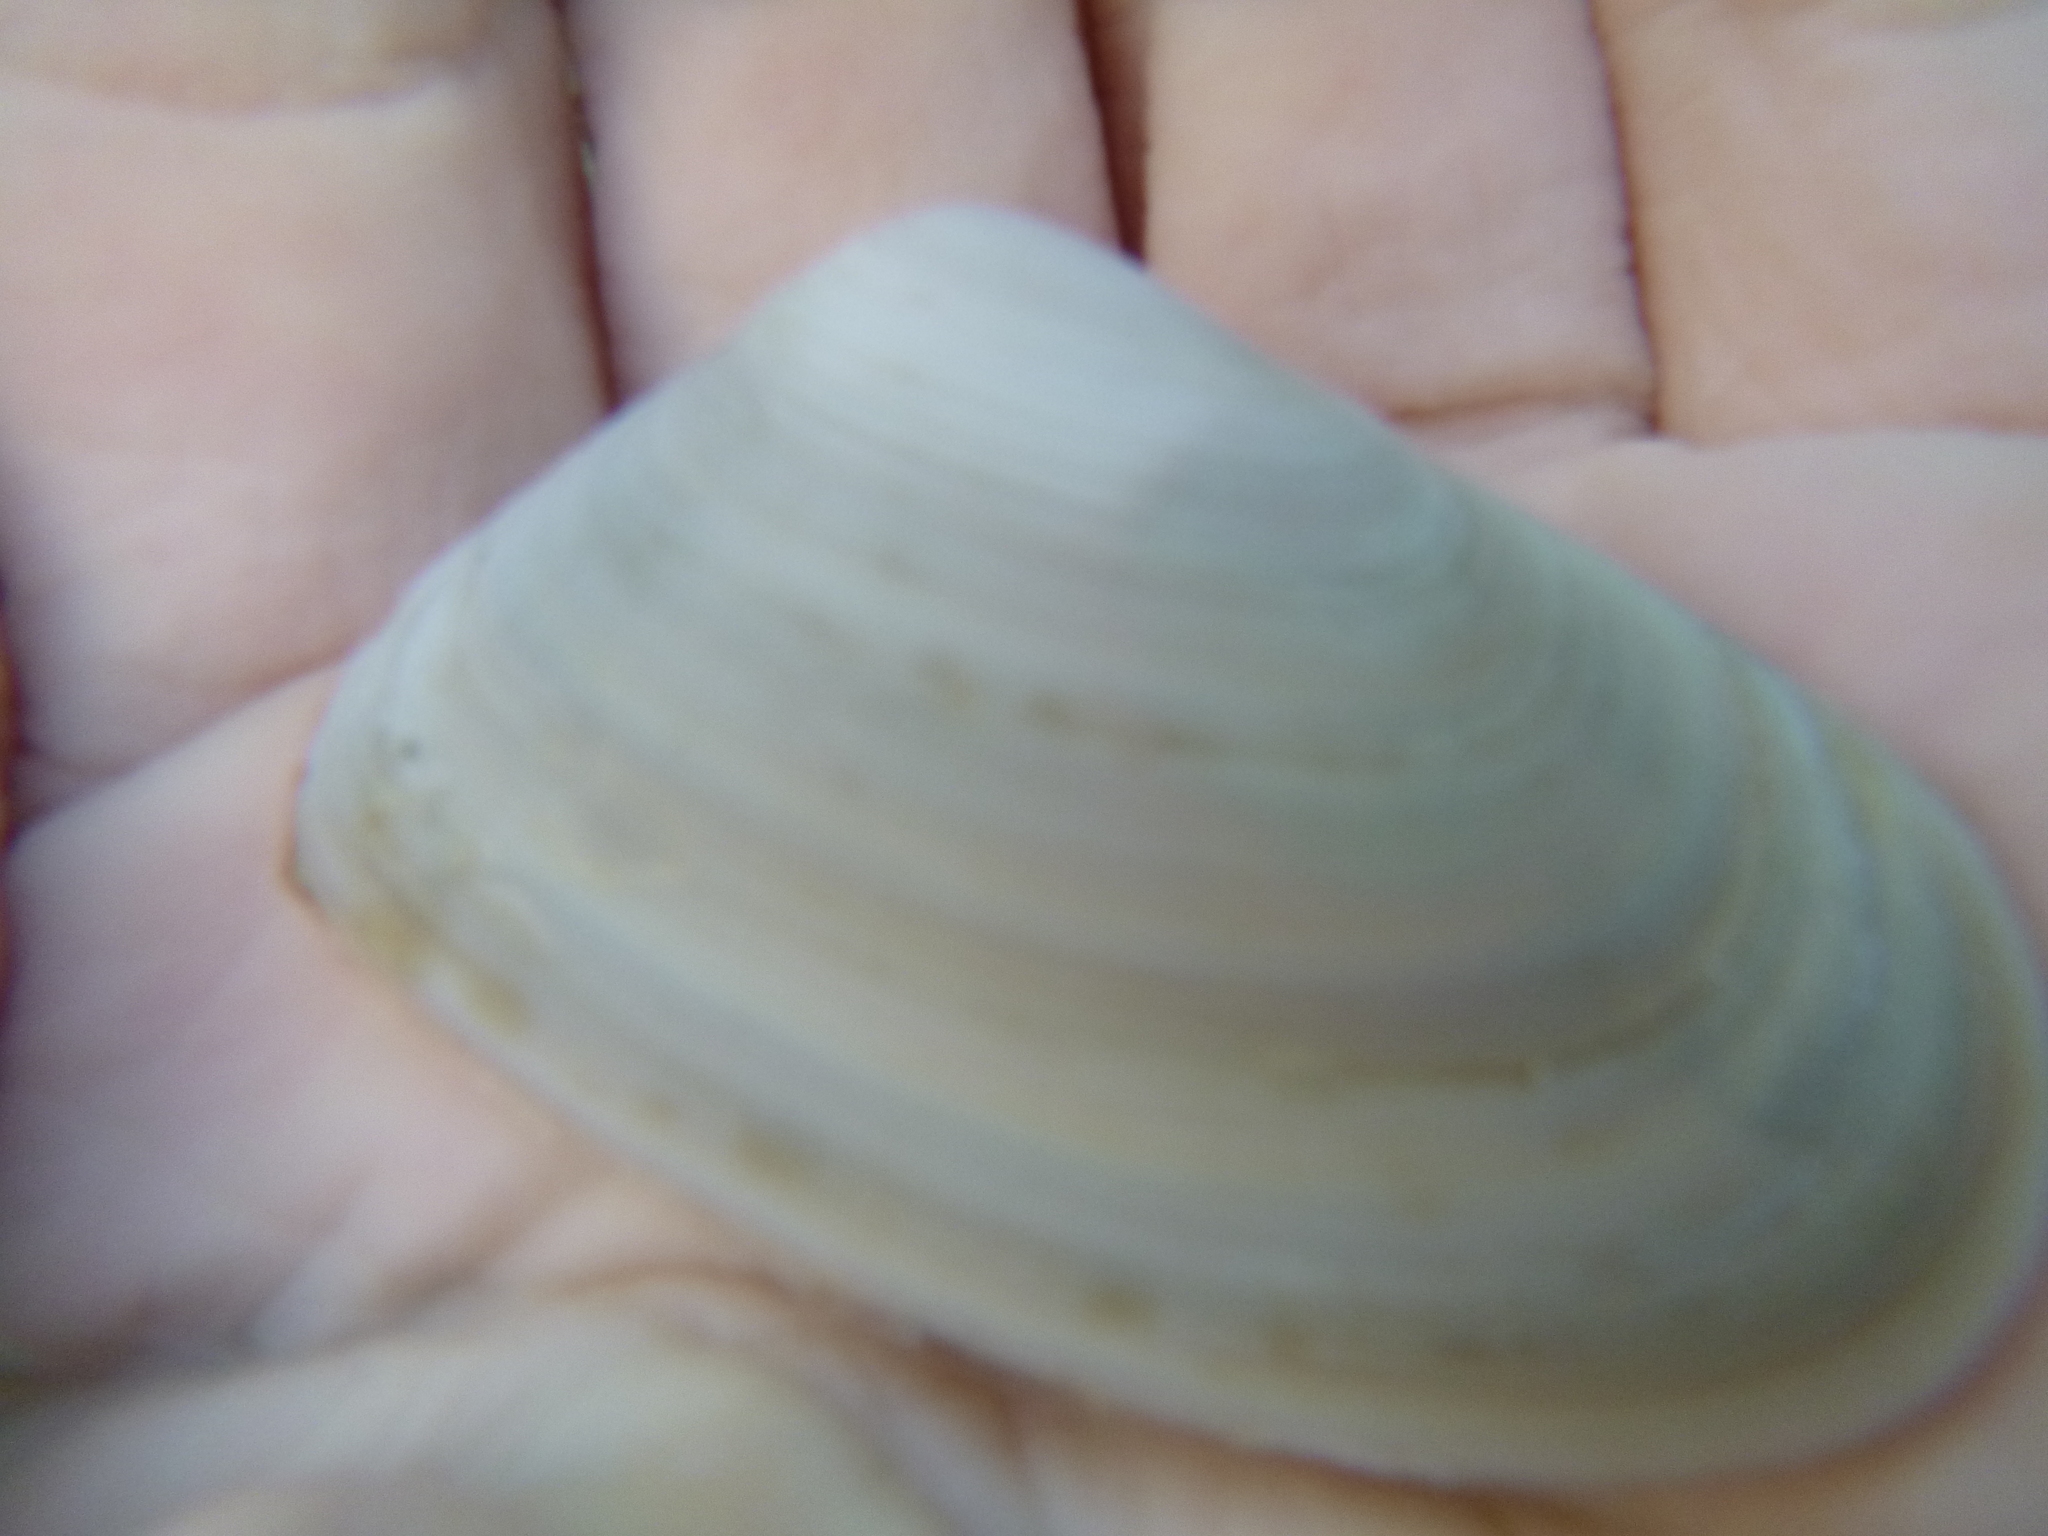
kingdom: Animalia
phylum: Mollusca
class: Bivalvia
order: Venerida
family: Mesodesmatidae
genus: Paphies
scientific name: Paphies subtriangulata
